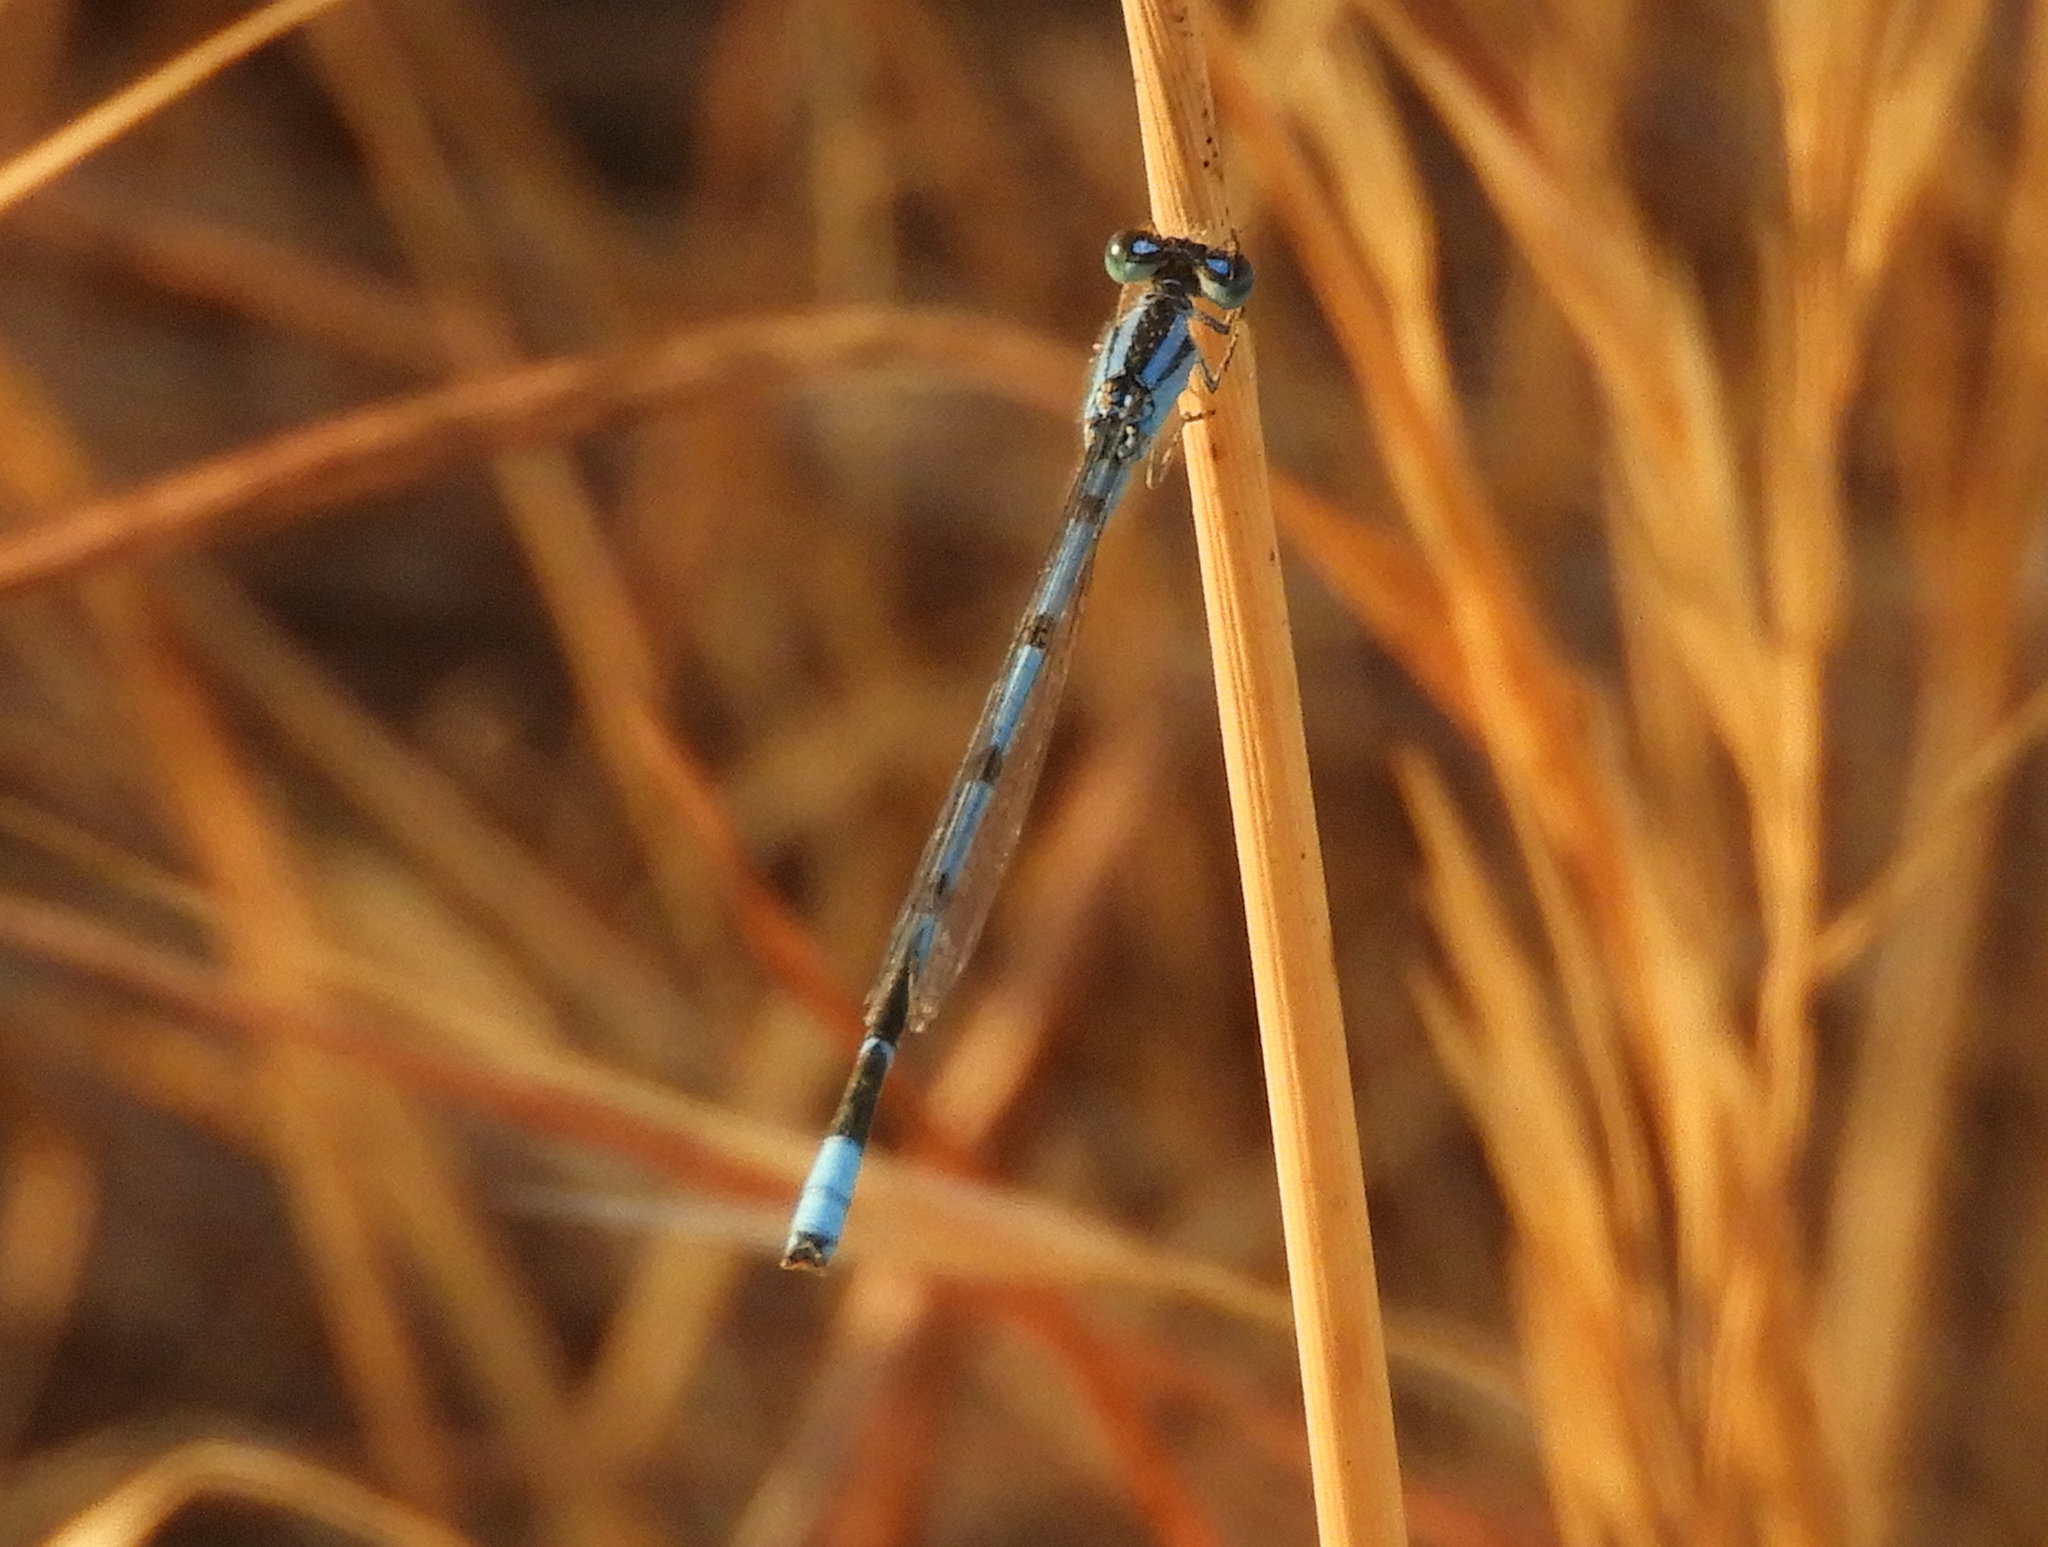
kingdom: Animalia
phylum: Arthropoda
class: Insecta
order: Odonata
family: Coenagrionidae
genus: Enallagma
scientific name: Enallagma civile
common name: Damselfly
